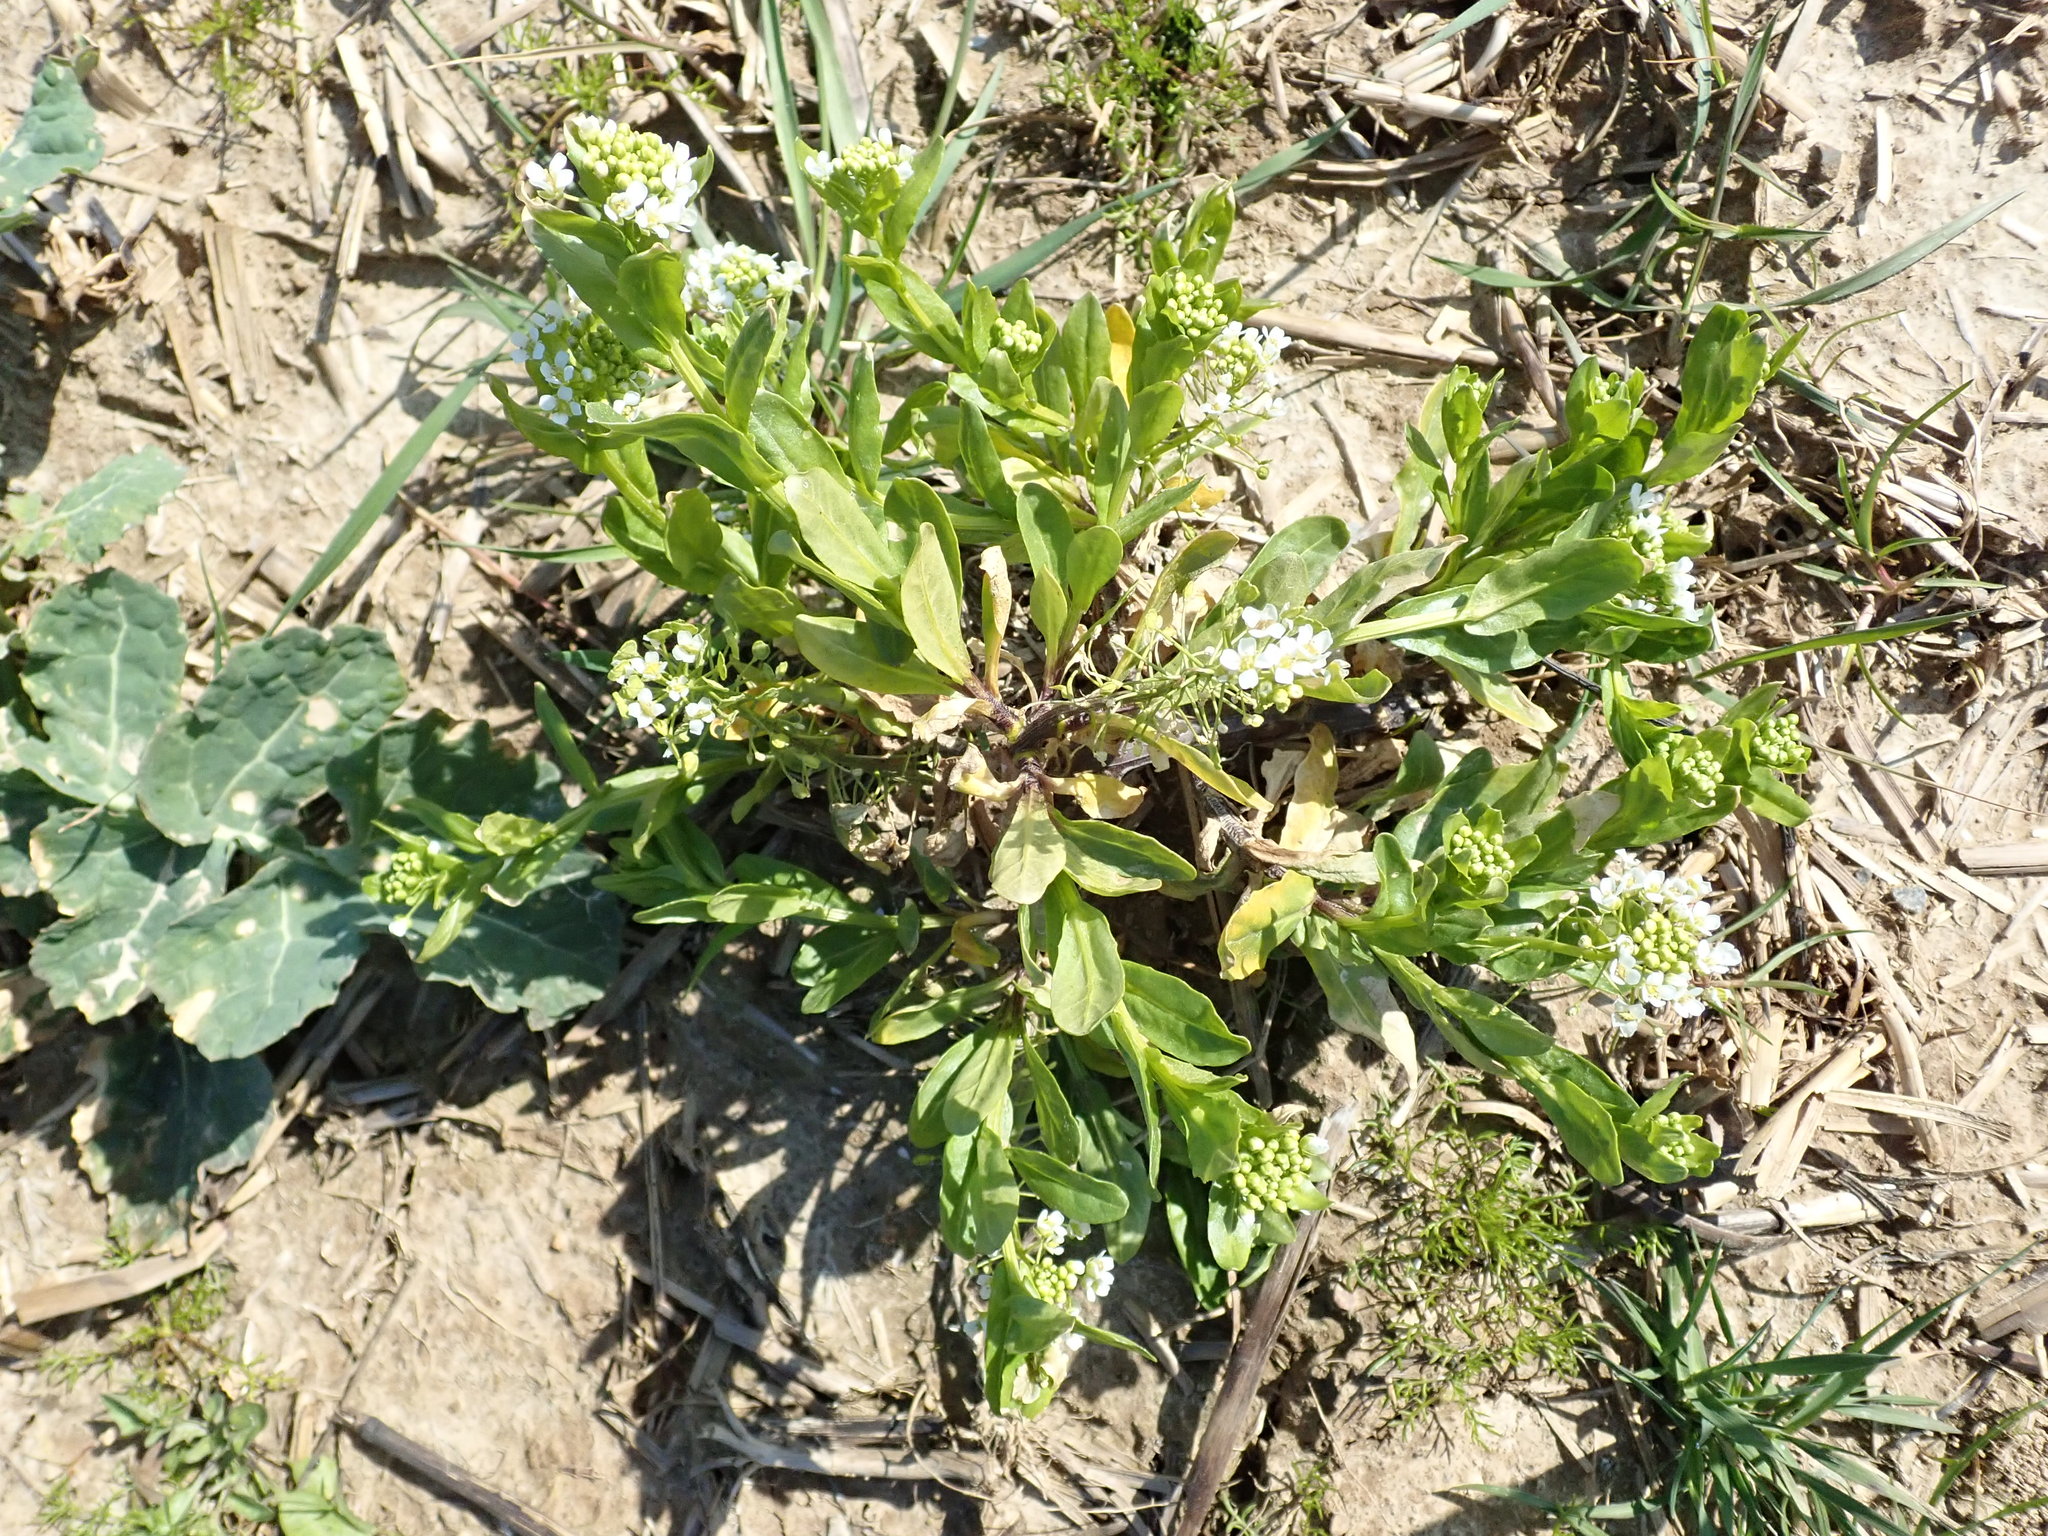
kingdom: Plantae
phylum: Tracheophyta
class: Magnoliopsida
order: Brassicales
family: Brassicaceae
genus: Thlaspi
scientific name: Thlaspi arvense
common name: Field pennycress
